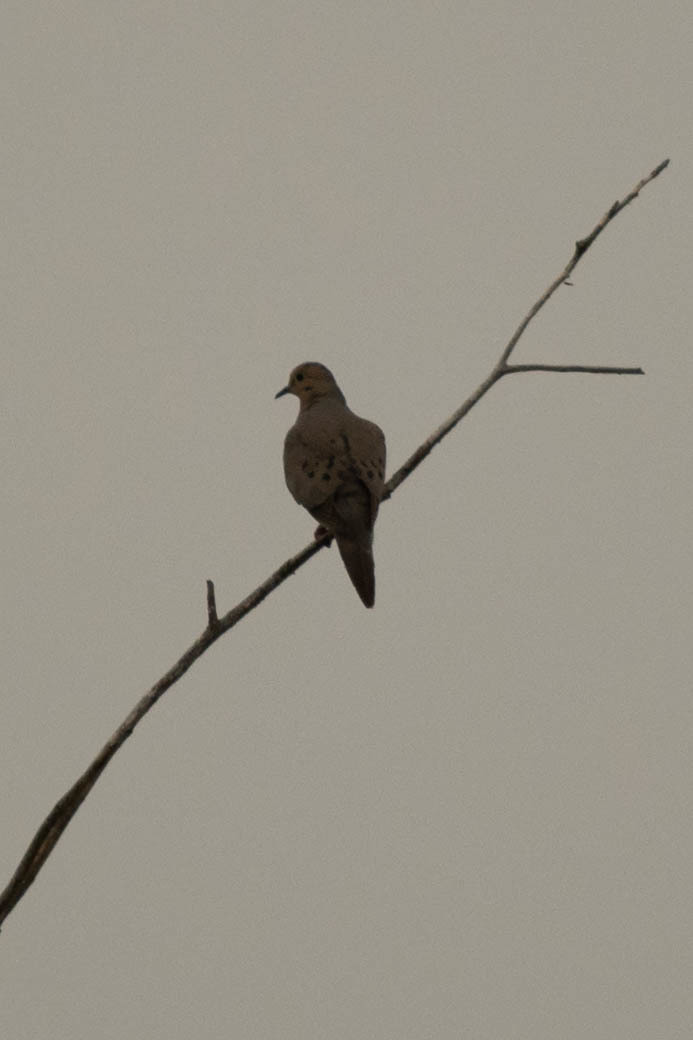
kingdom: Animalia
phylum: Chordata
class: Aves
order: Columbiformes
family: Columbidae
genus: Zenaida
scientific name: Zenaida macroura
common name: Mourning dove
